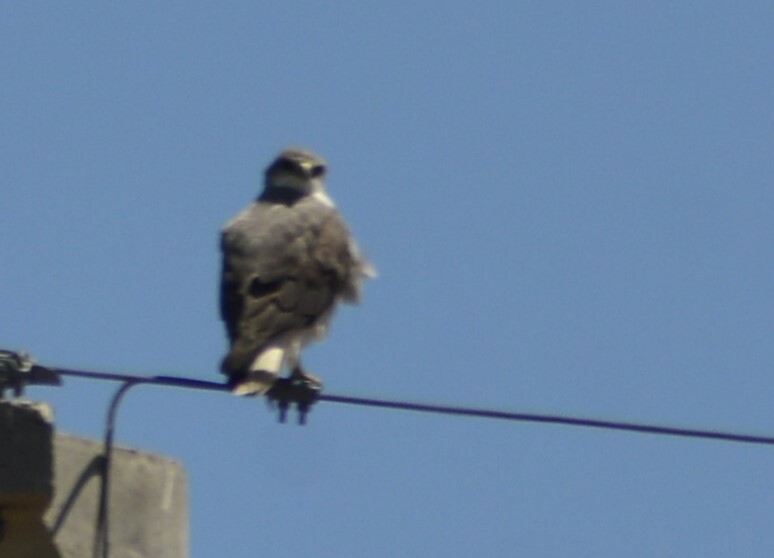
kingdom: Animalia
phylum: Chordata
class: Aves
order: Accipitriformes
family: Accipitridae
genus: Buteo
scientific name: Buteo polyosoma
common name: Variable hawk
